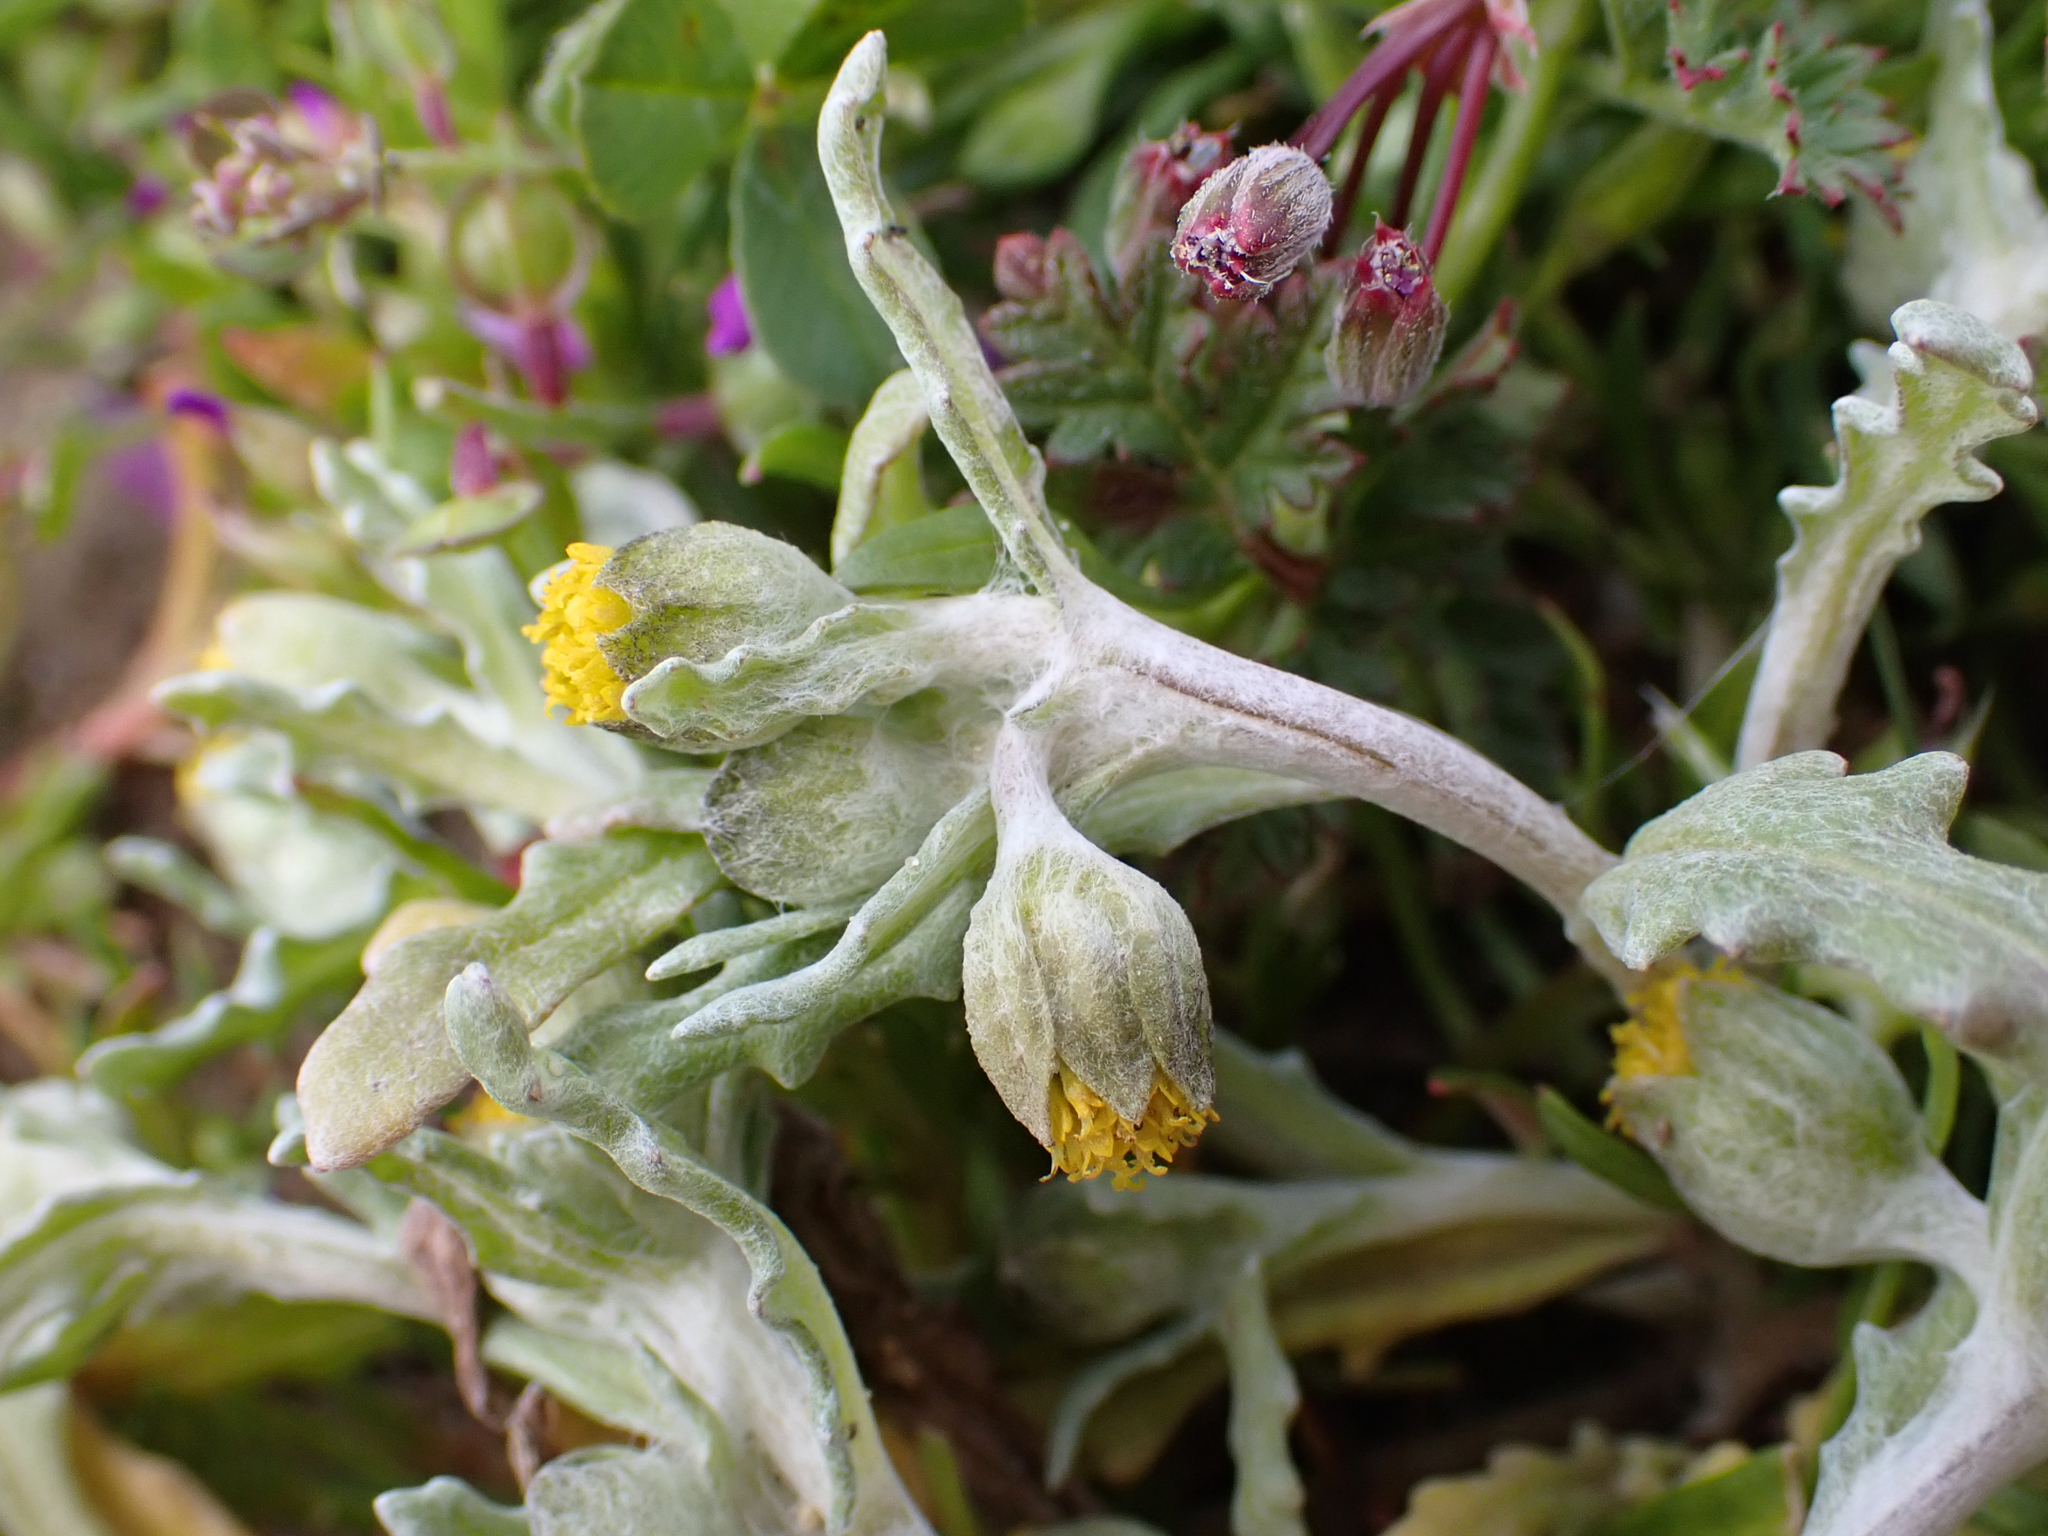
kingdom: Plantae
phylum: Tracheophyta
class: Magnoliopsida
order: Asterales
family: Asteraceae
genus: Monolopia
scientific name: Monolopia congdonii
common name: San joaquin woolly-threads
